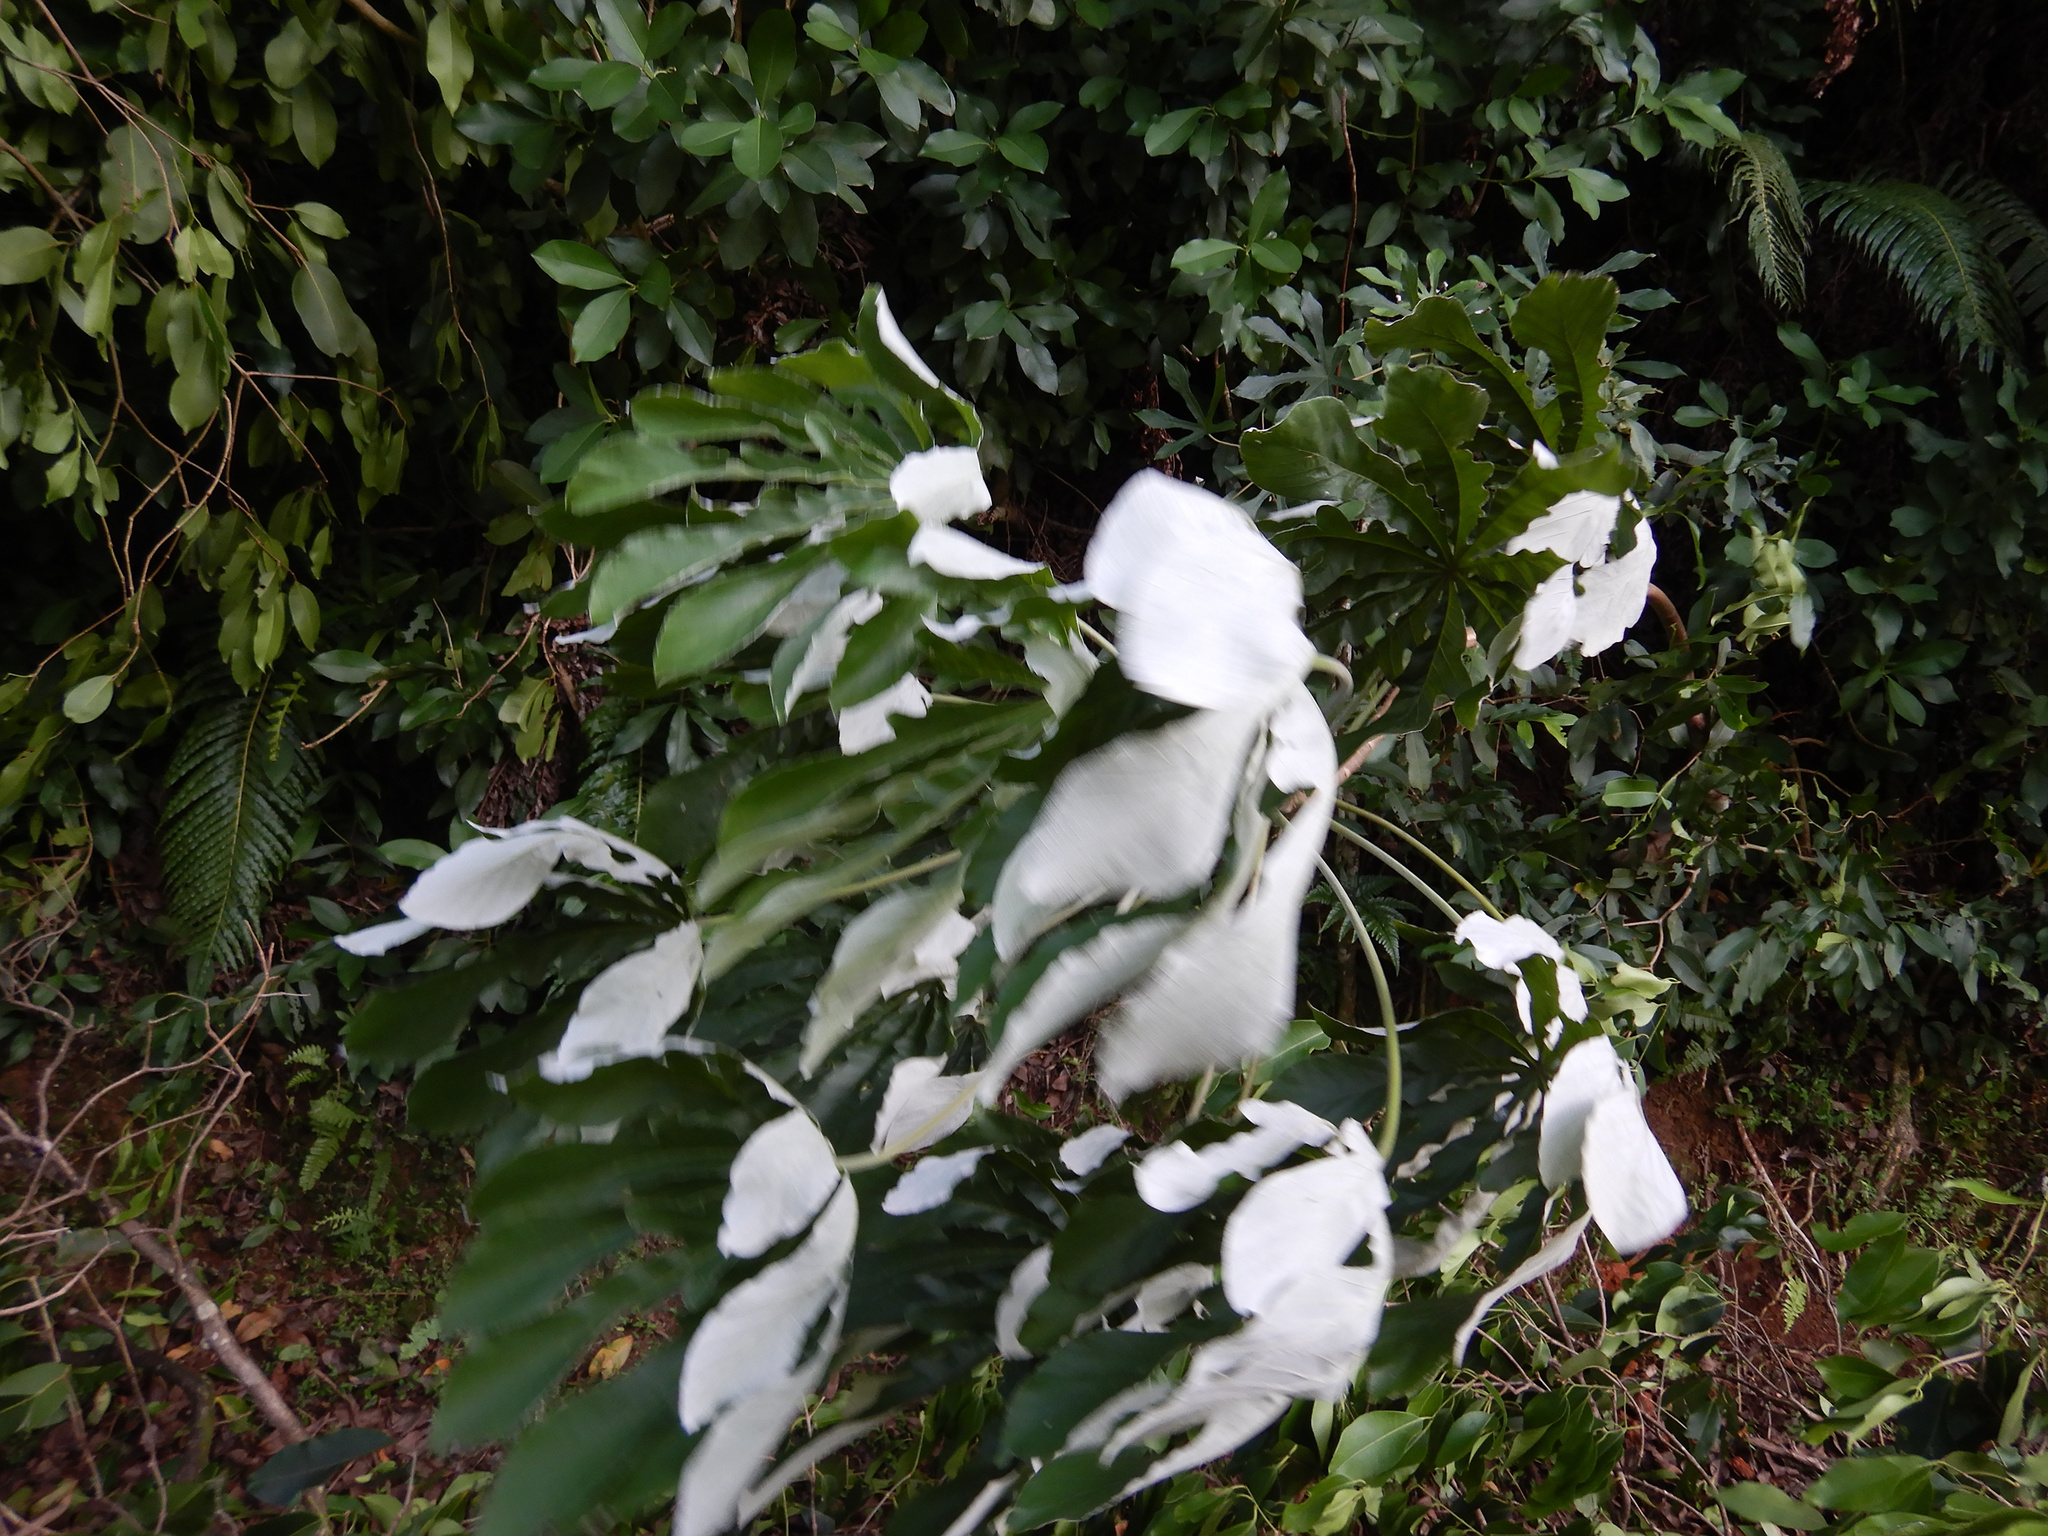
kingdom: Plantae
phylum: Tracheophyta
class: Magnoliopsida
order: Rosales
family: Urticaceae
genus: Cecropia
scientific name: Cecropia pachystachya
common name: Ambay pumpwood
